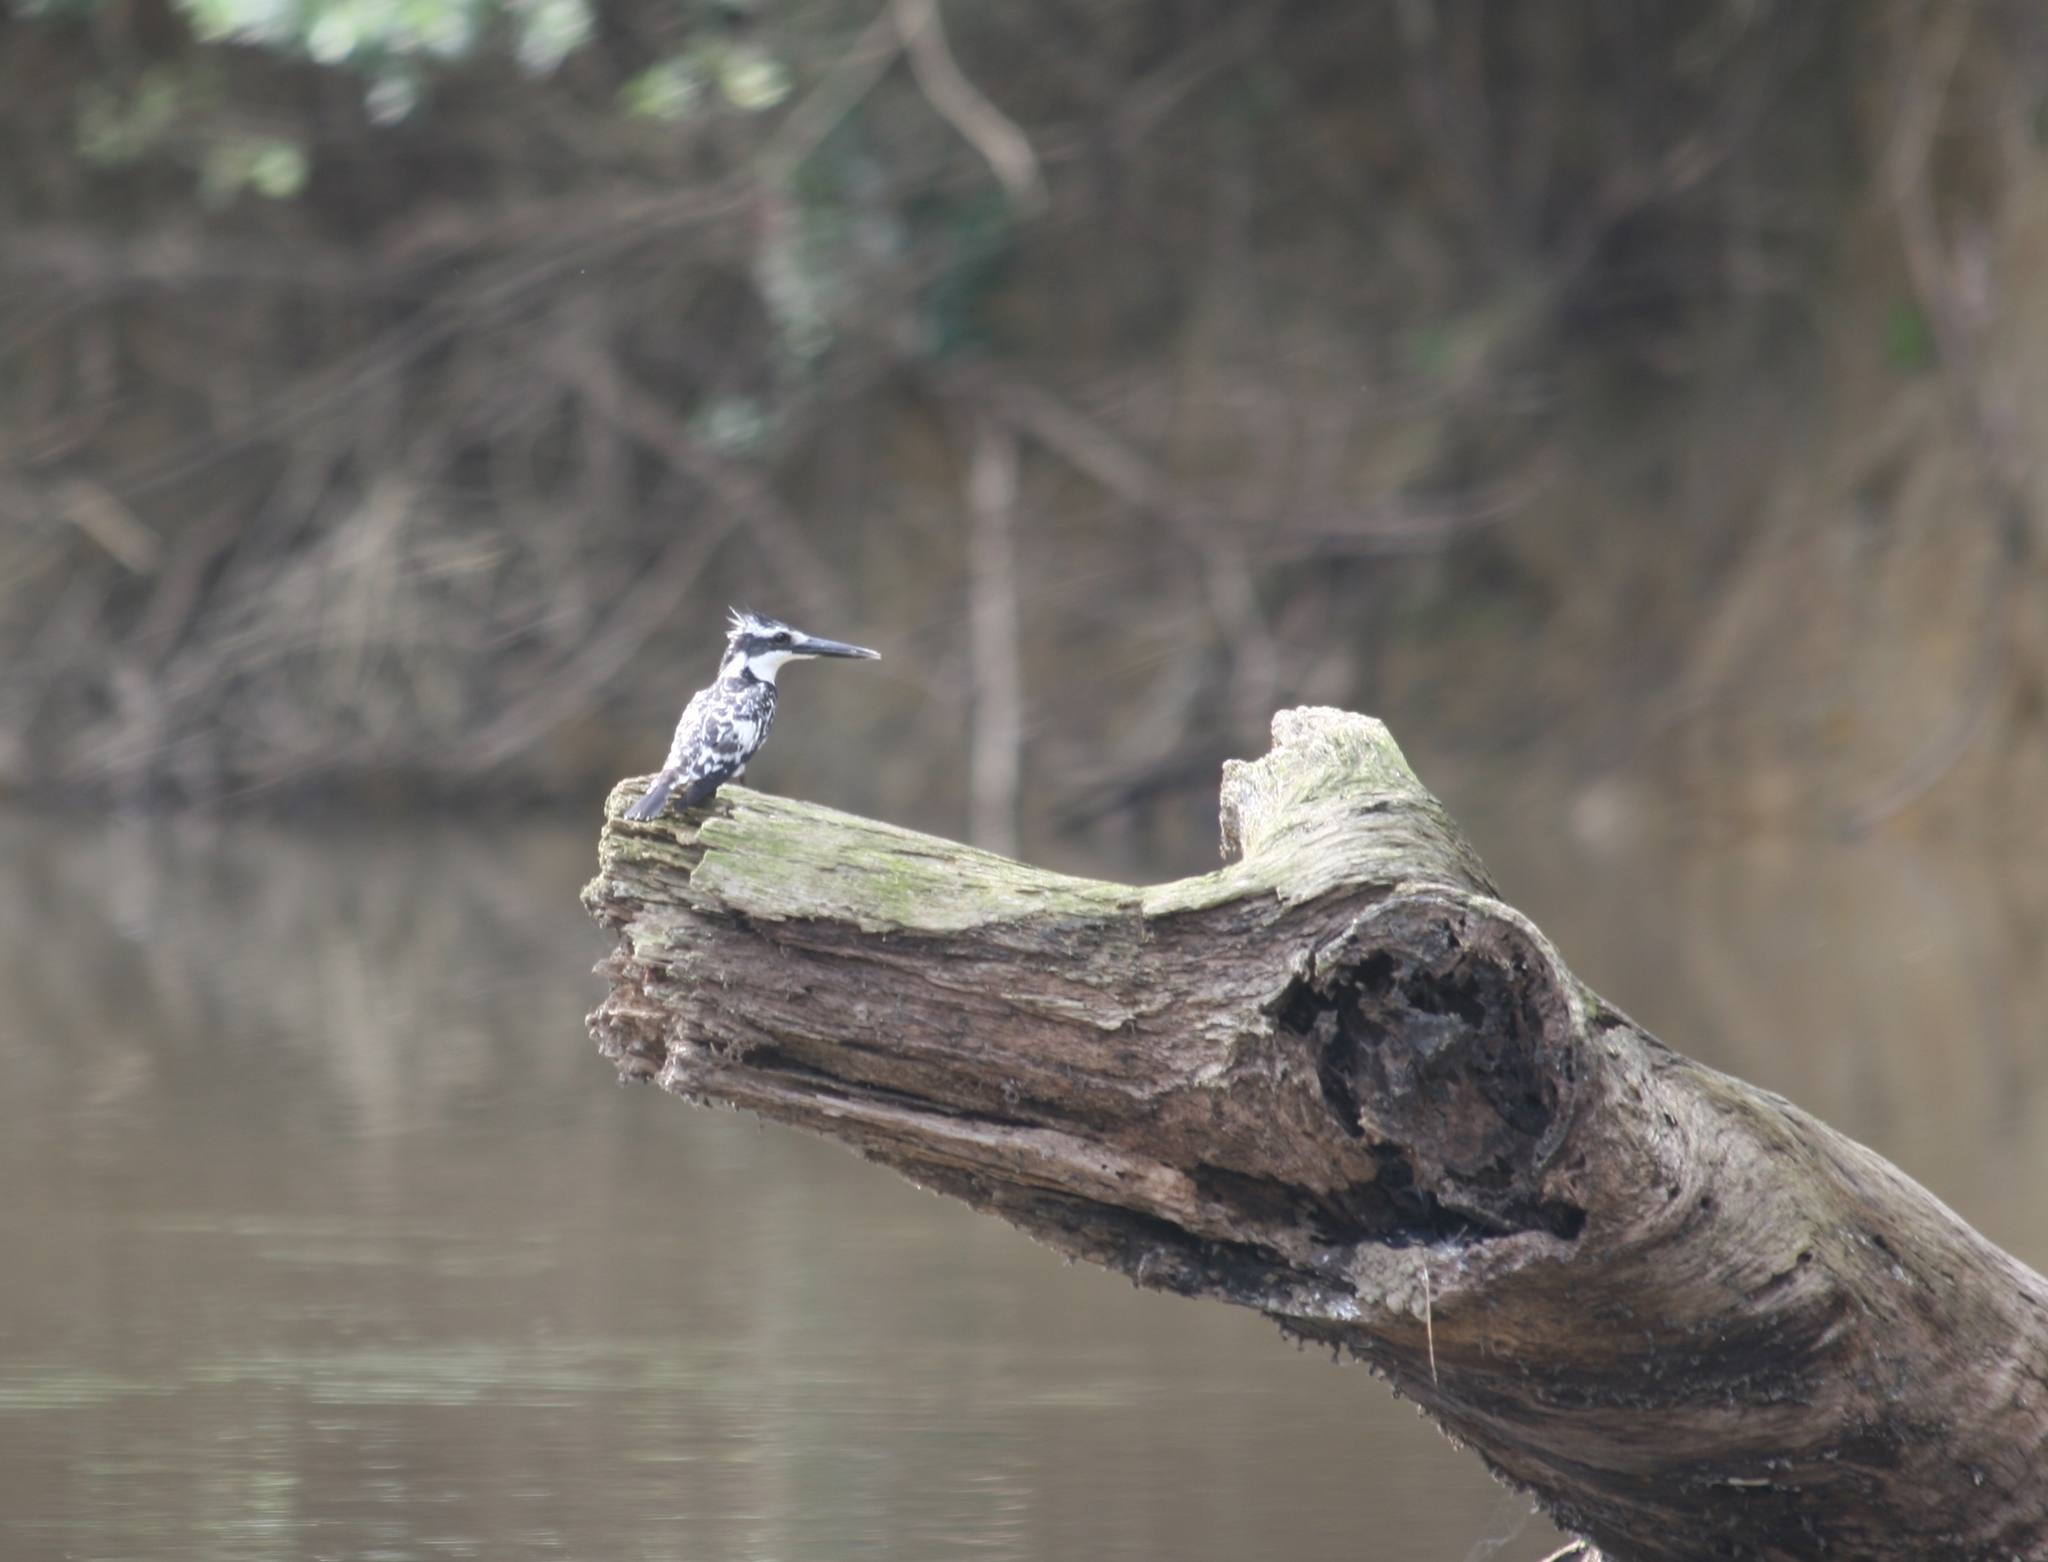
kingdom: Animalia
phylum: Chordata
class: Aves
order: Coraciiformes
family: Alcedinidae
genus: Ceryle
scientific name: Ceryle rudis
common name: Pied kingfisher
